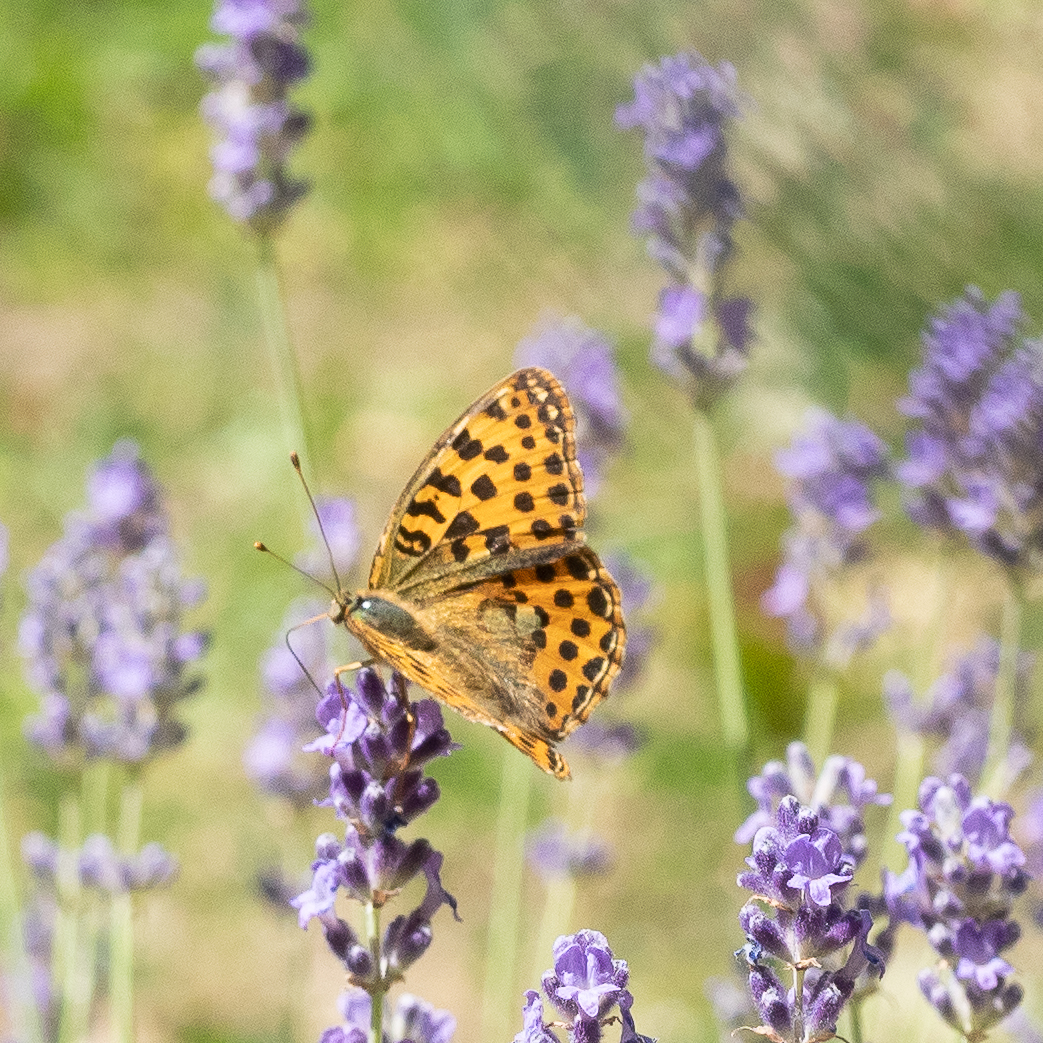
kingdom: Animalia
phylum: Arthropoda
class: Insecta
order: Lepidoptera
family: Nymphalidae
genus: Issoria
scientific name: Issoria lathonia
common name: Queen of spain fritillary
